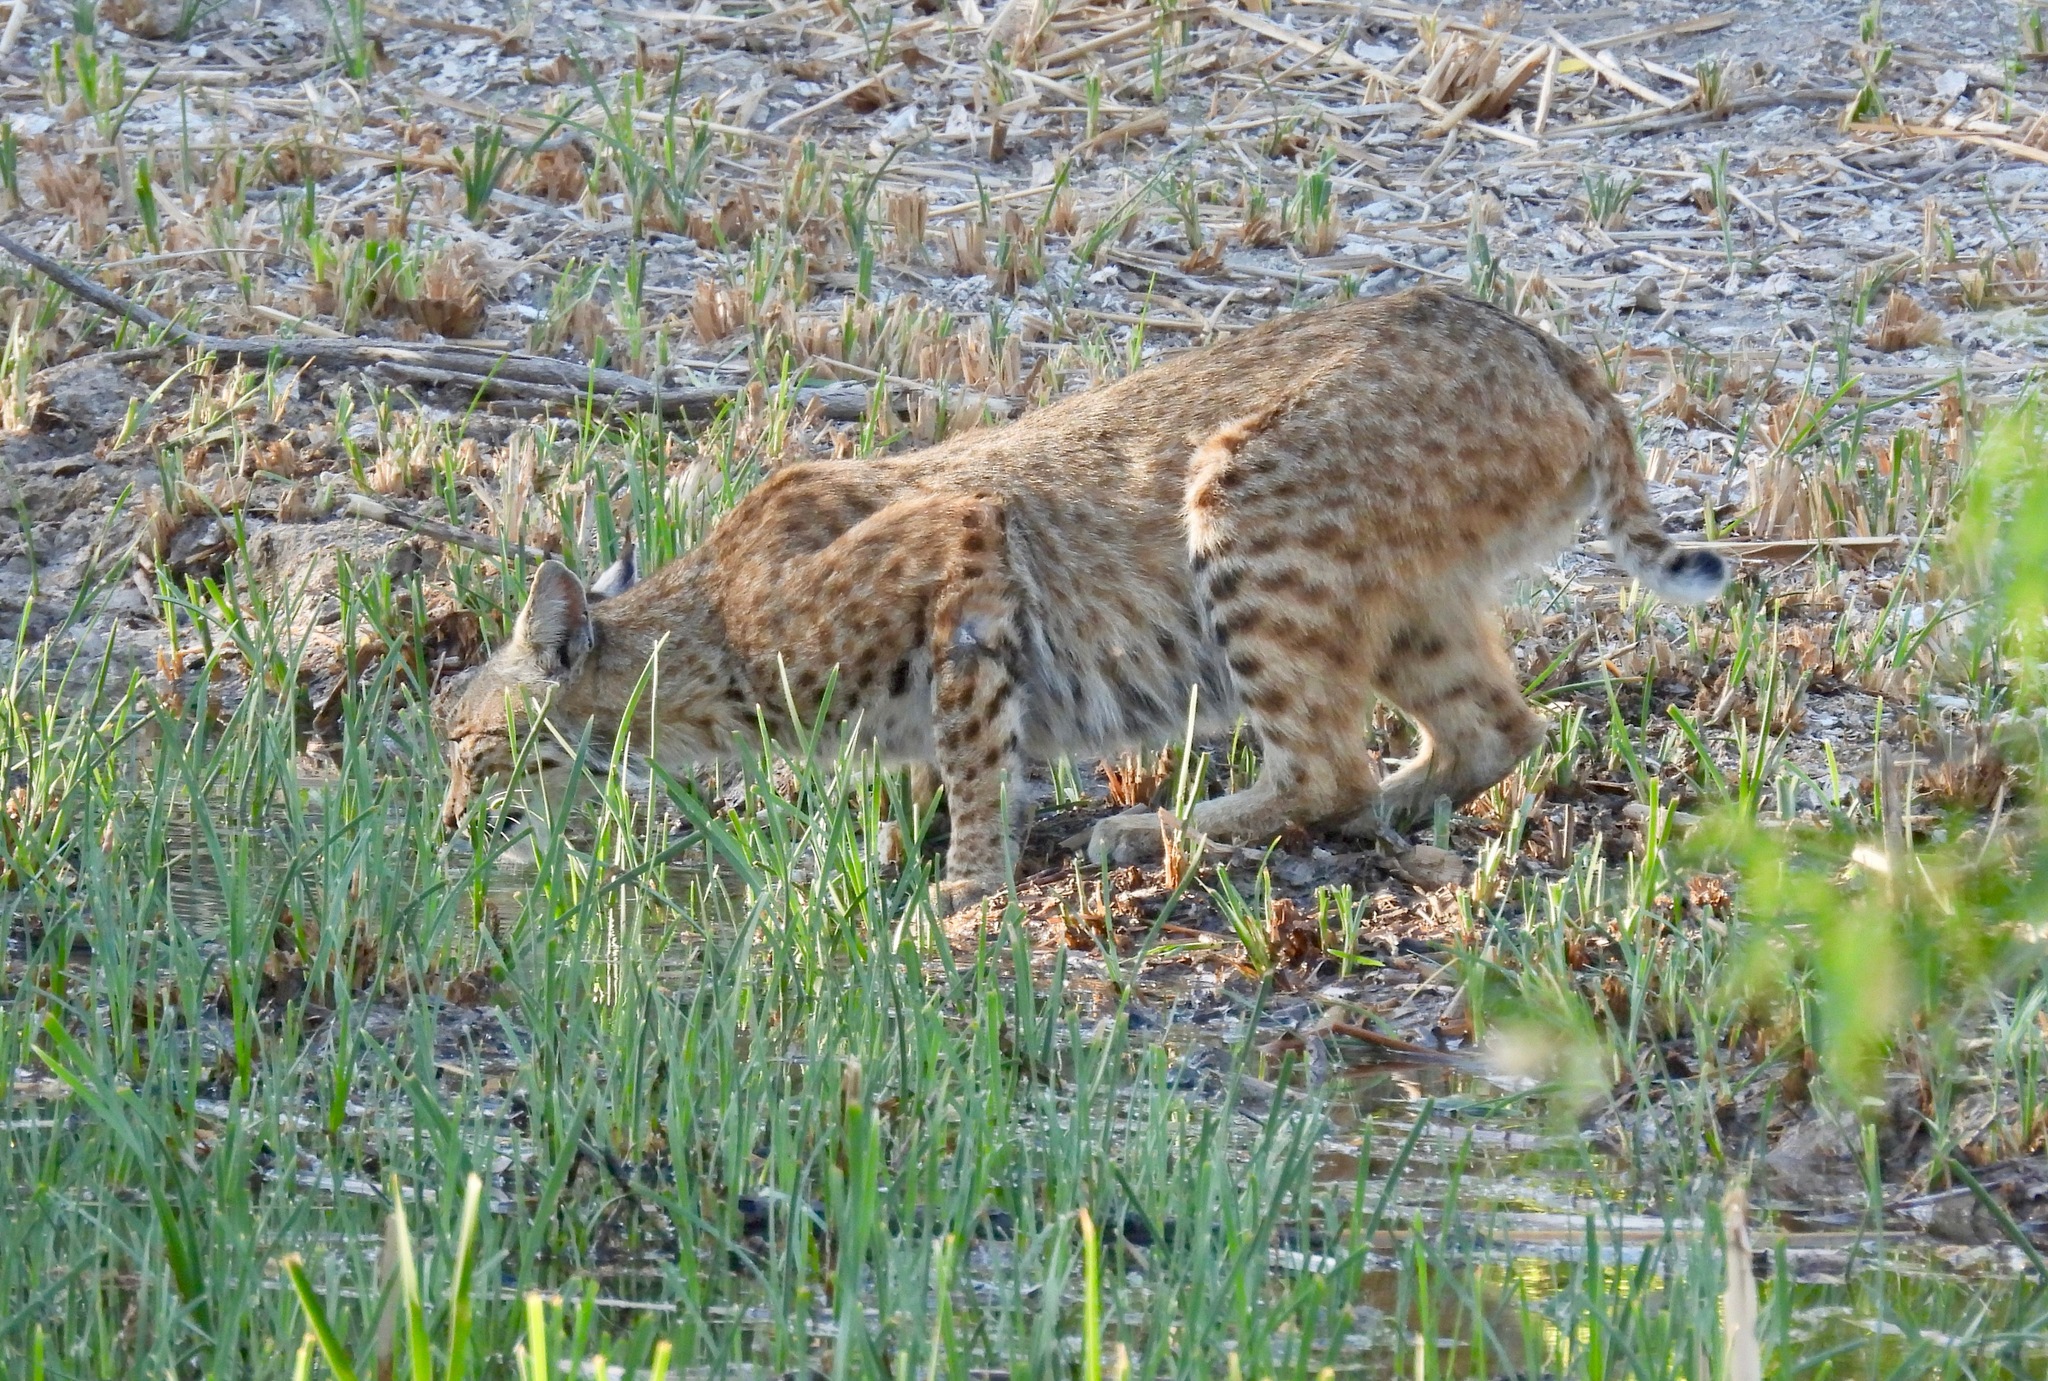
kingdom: Animalia
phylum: Chordata
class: Mammalia
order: Carnivora
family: Felidae
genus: Lynx
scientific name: Lynx rufus
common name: Bobcat
